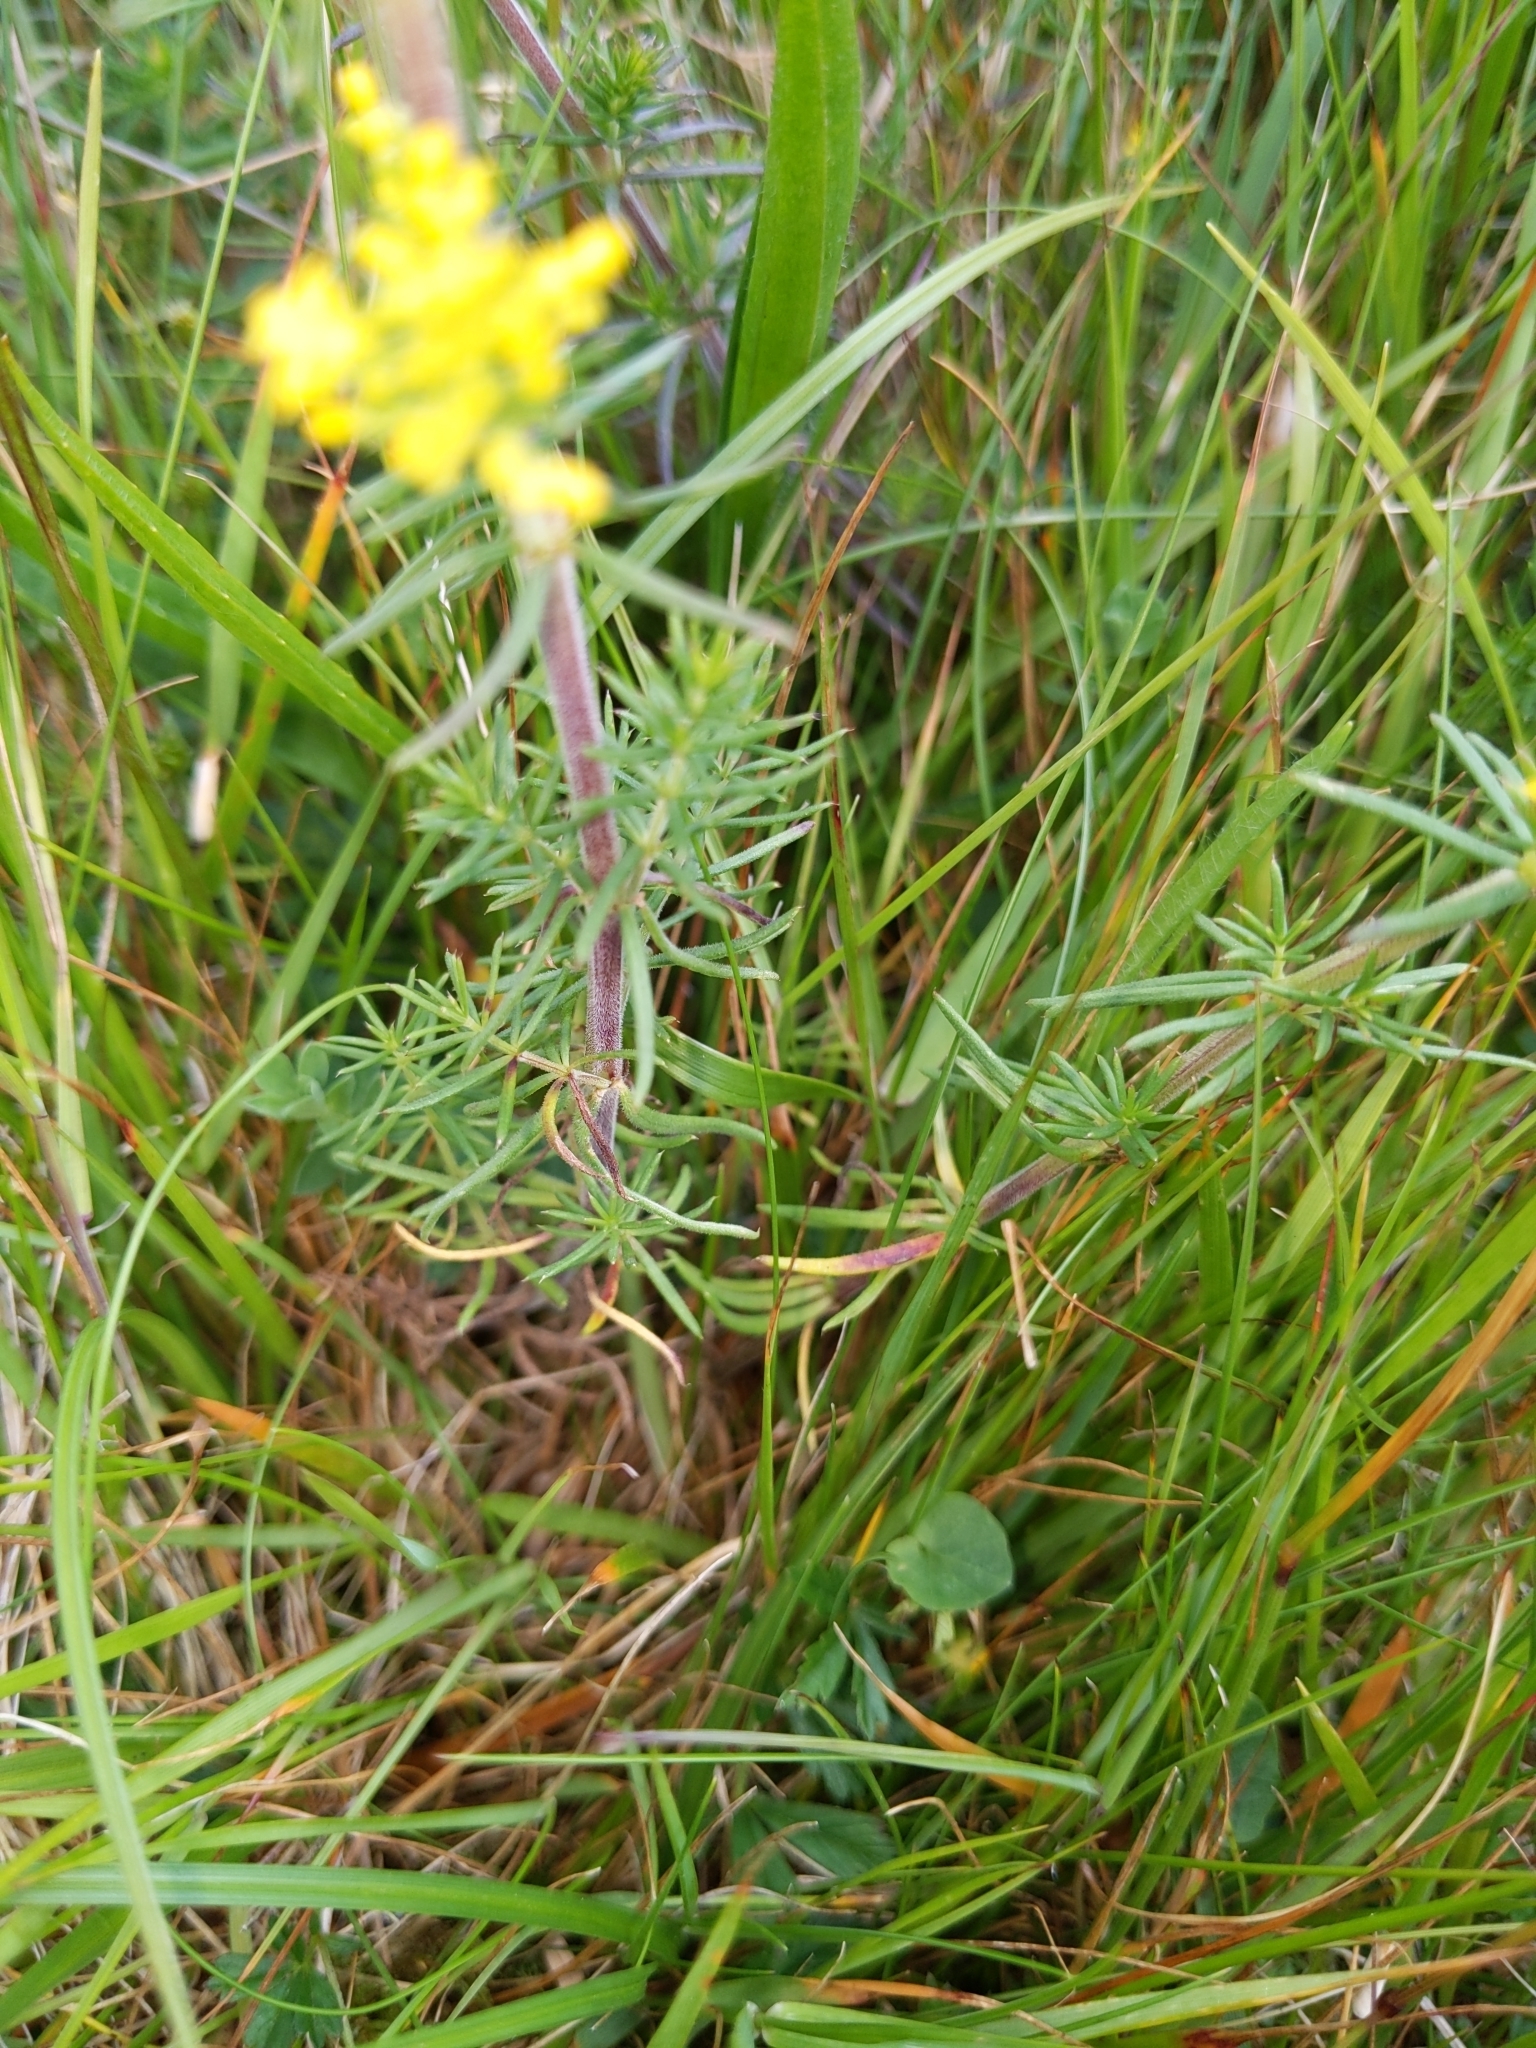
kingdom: Plantae
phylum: Tracheophyta
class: Magnoliopsida
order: Gentianales
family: Rubiaceae
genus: Galium
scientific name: Galium verum
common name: Lady's bedstraw
